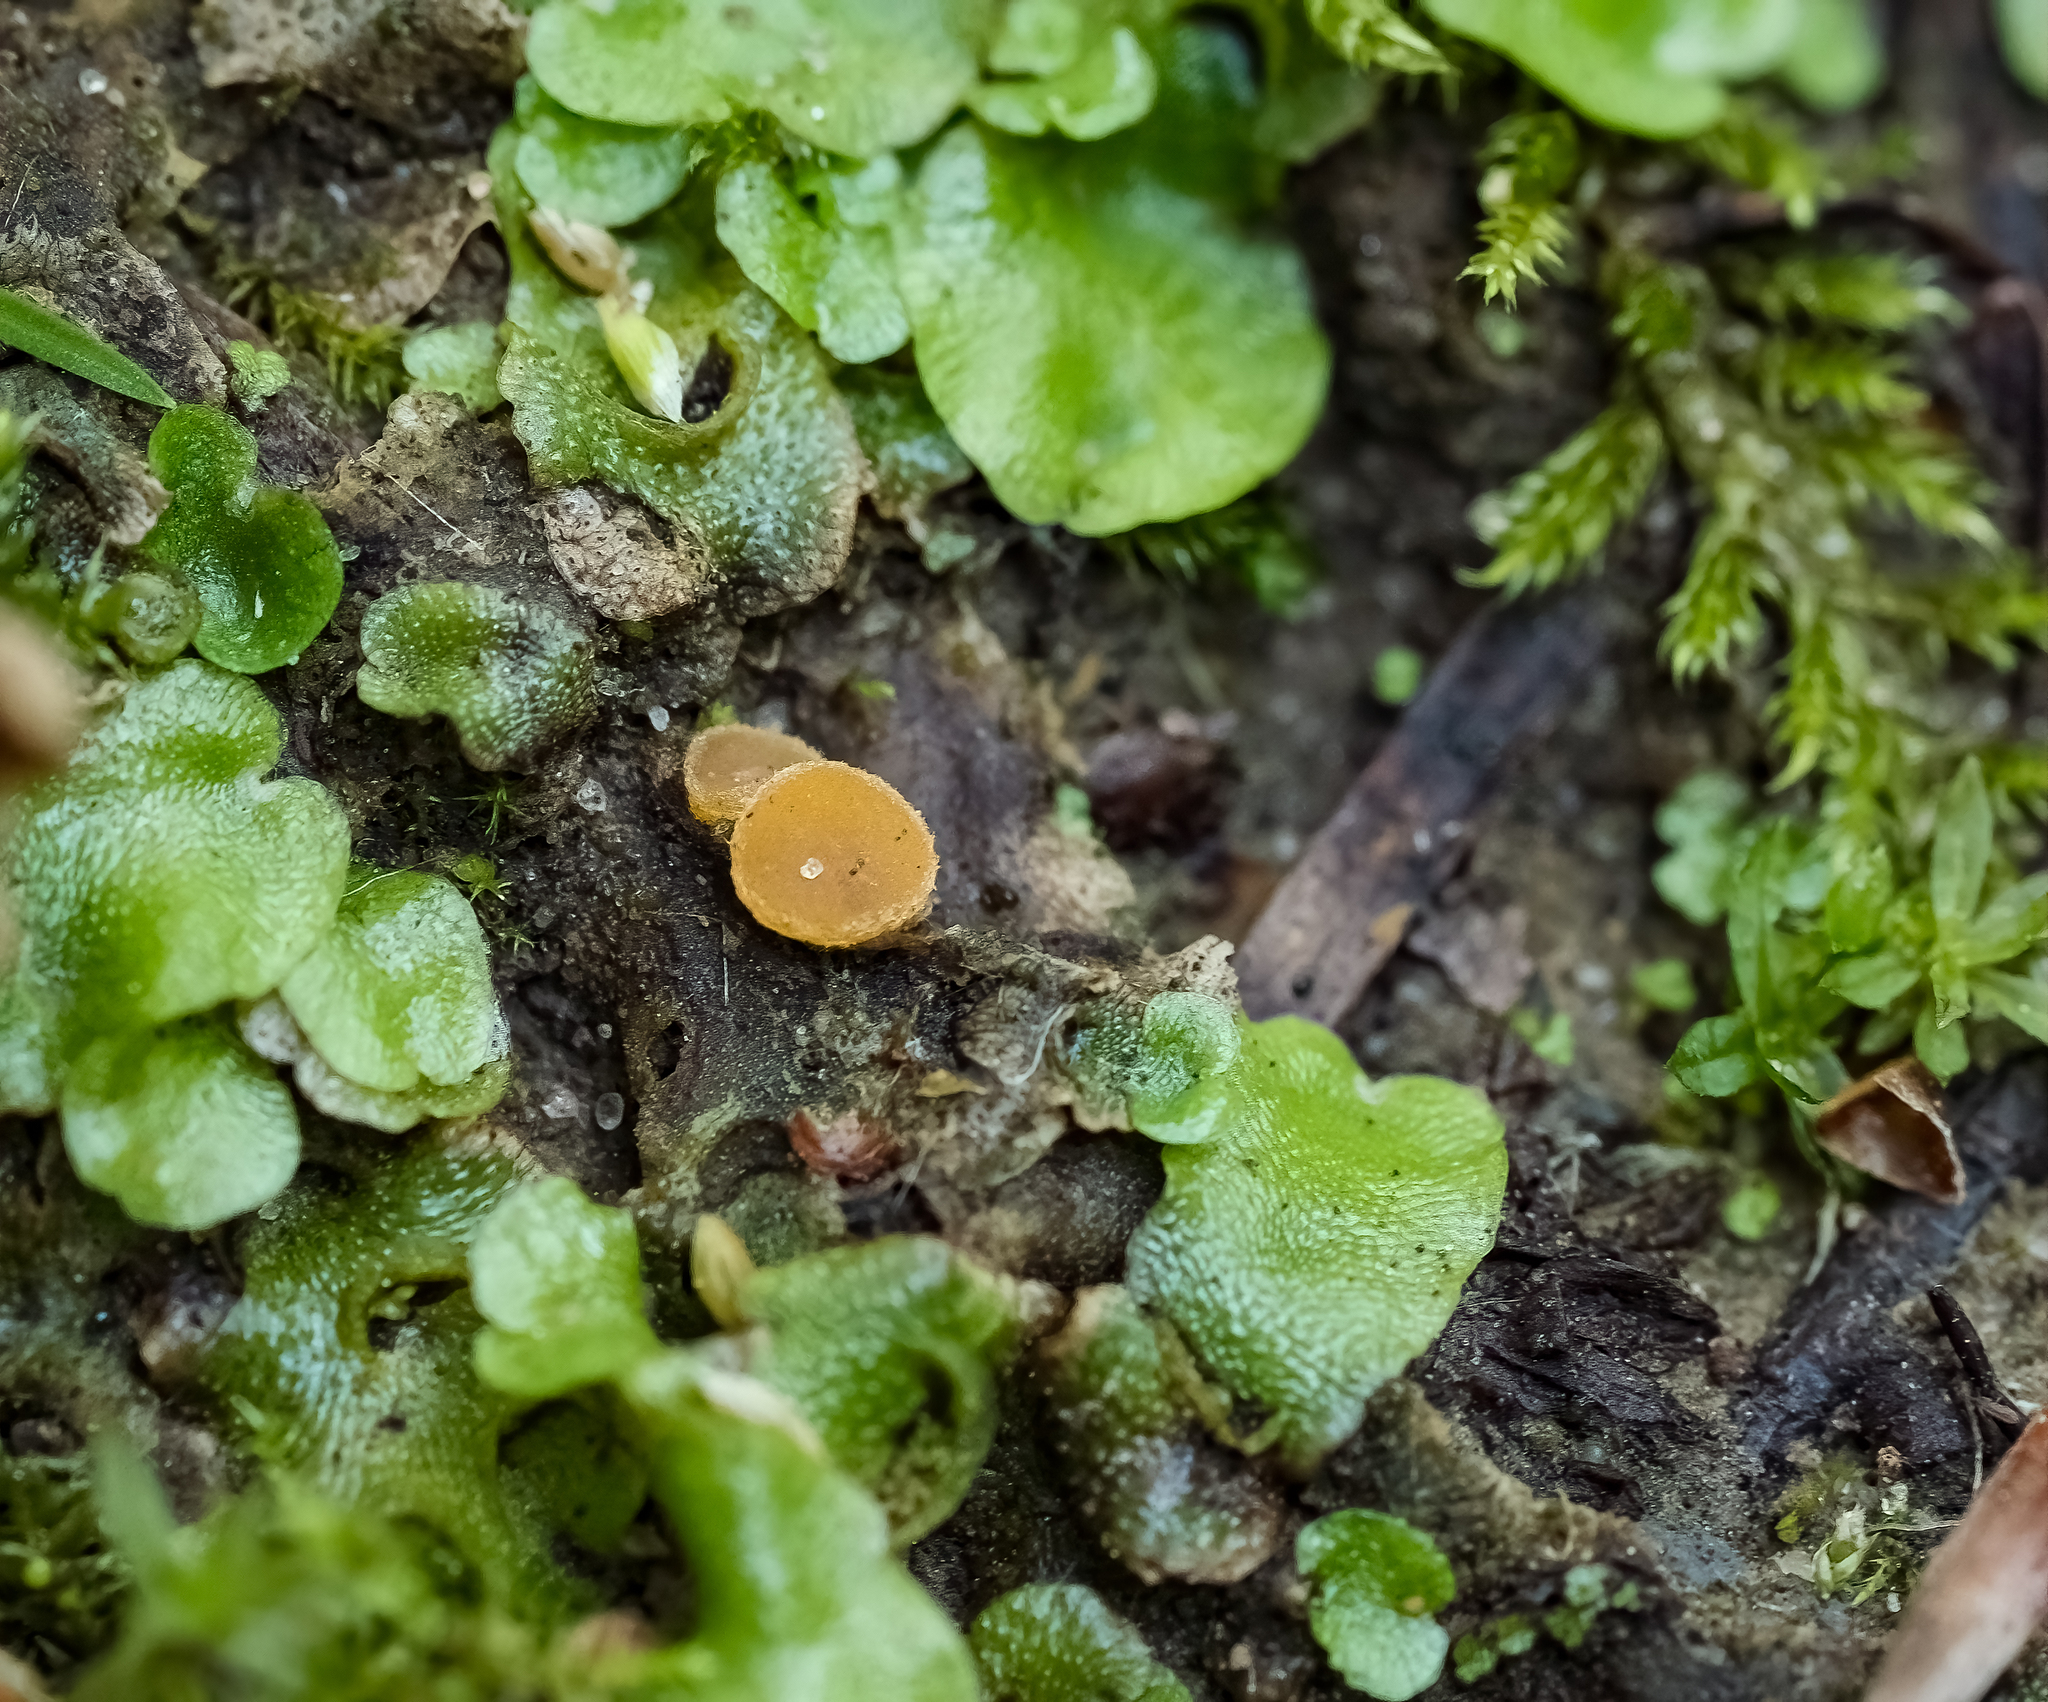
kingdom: Plantae
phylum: Marchantiophyta
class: Marchantiopsida
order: Lunulariales
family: Lunulariaceae
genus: Lunularia
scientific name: Lunularia cruciata
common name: Crescent-cup liverwort
